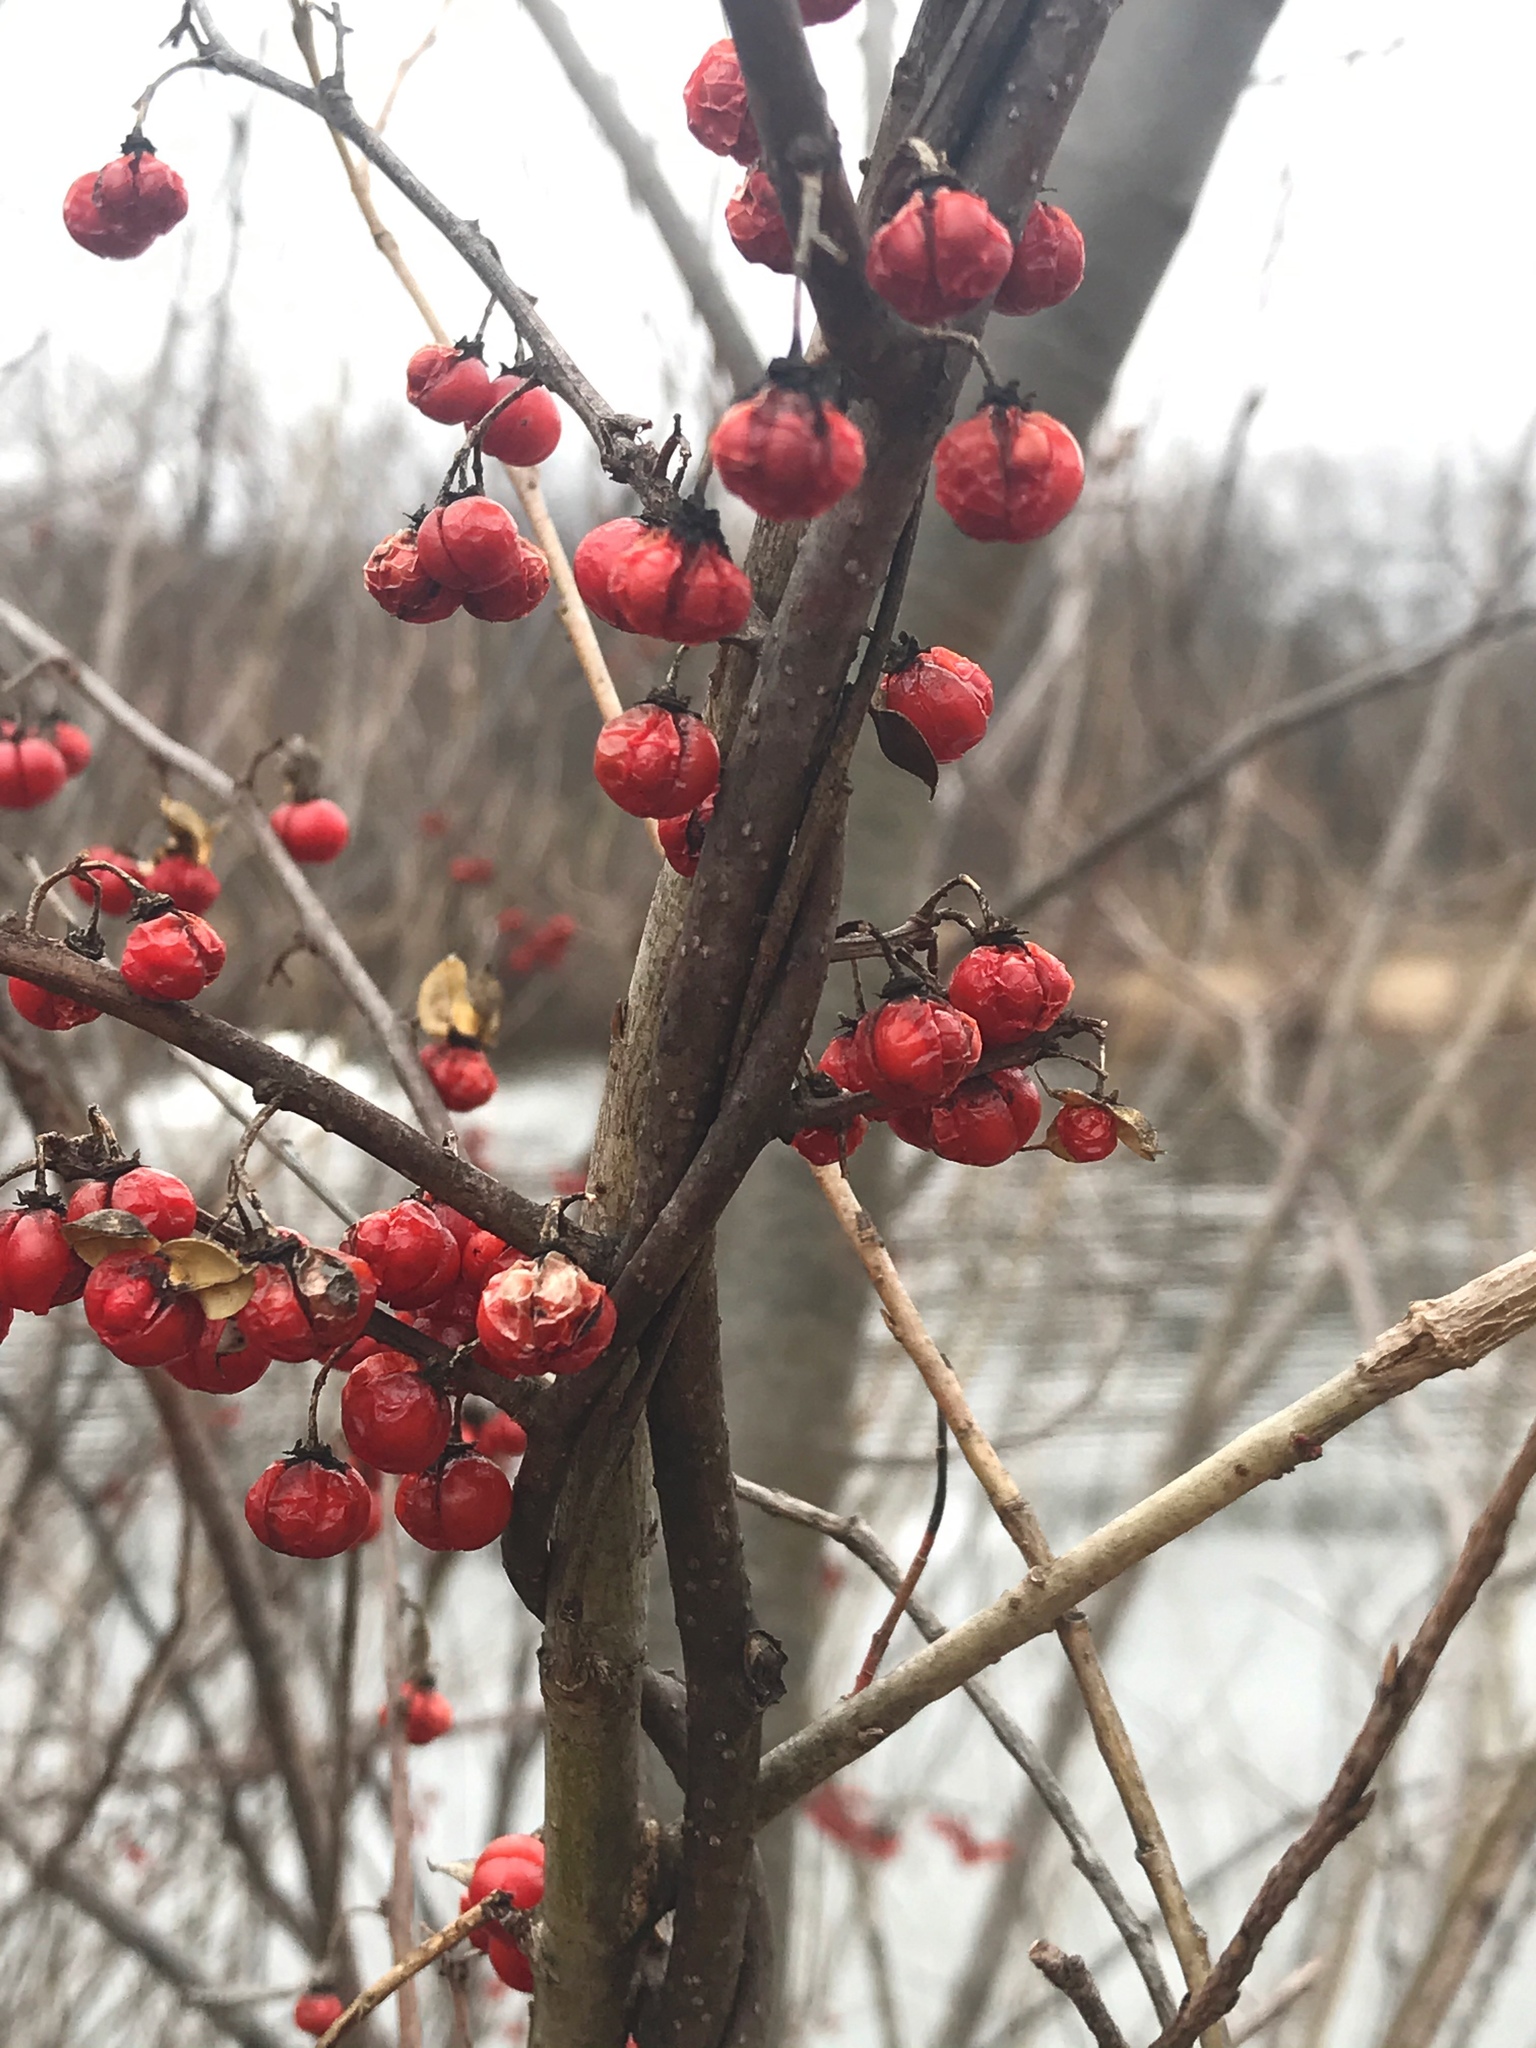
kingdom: Plantae
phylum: Tracheophyta
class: Magnoliopsida
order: Celastrales
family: Celastraceae
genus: Celastrus
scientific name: Celastrus orbiculatus
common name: Oriental bittersweet
